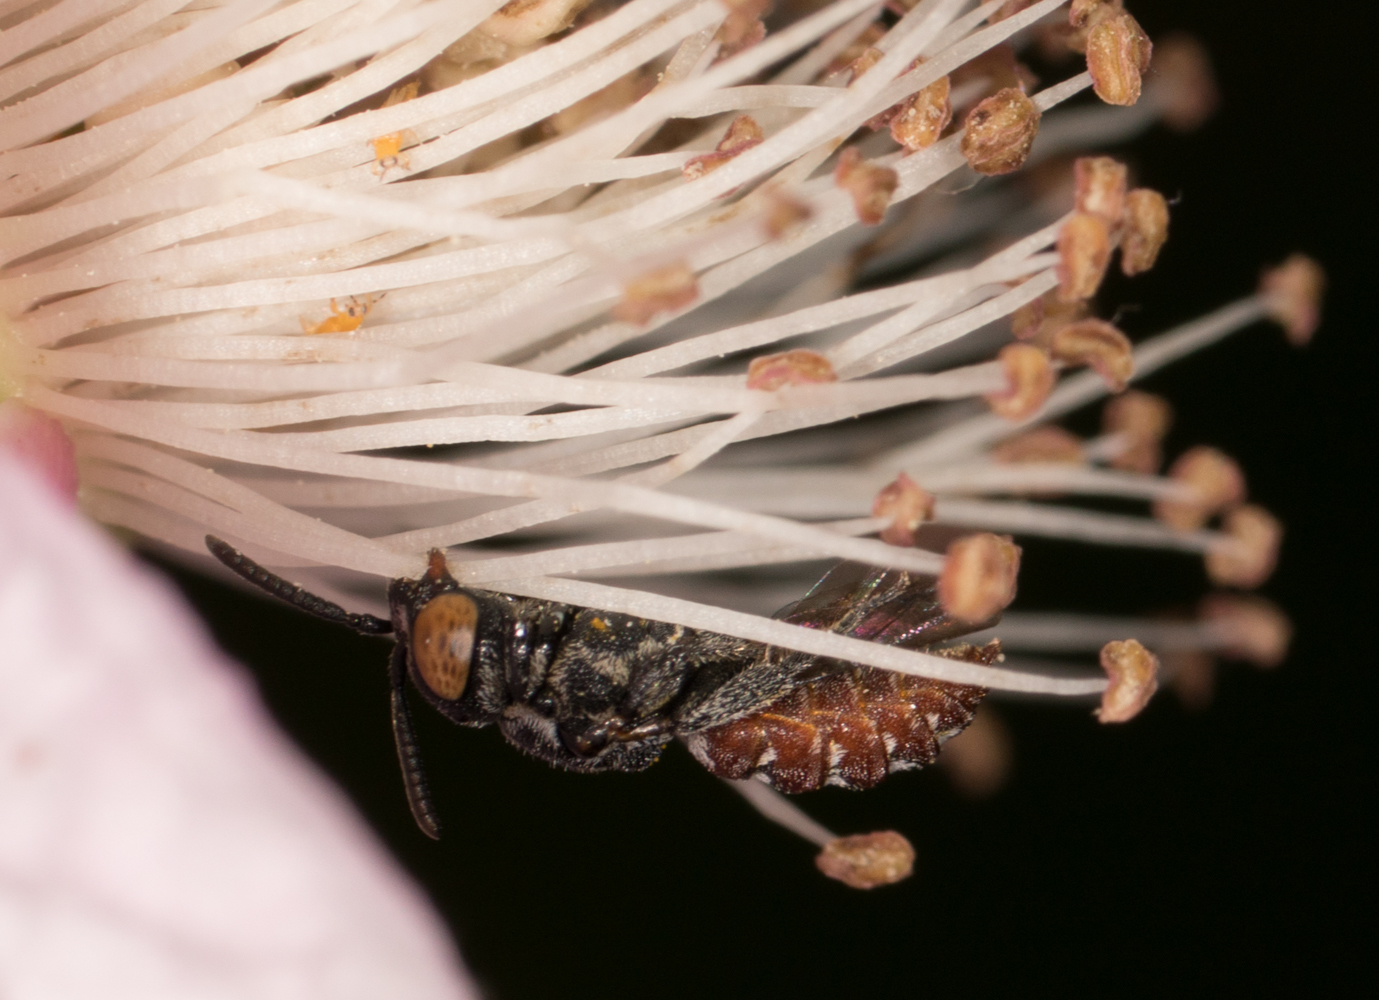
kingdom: Animalia
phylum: Arthropoda
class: Insecta
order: Hymenoptera
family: Apidae
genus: Holcopasites
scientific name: Holcopasites calliopsidis
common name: Calliopsis cuckoo nomad bee
